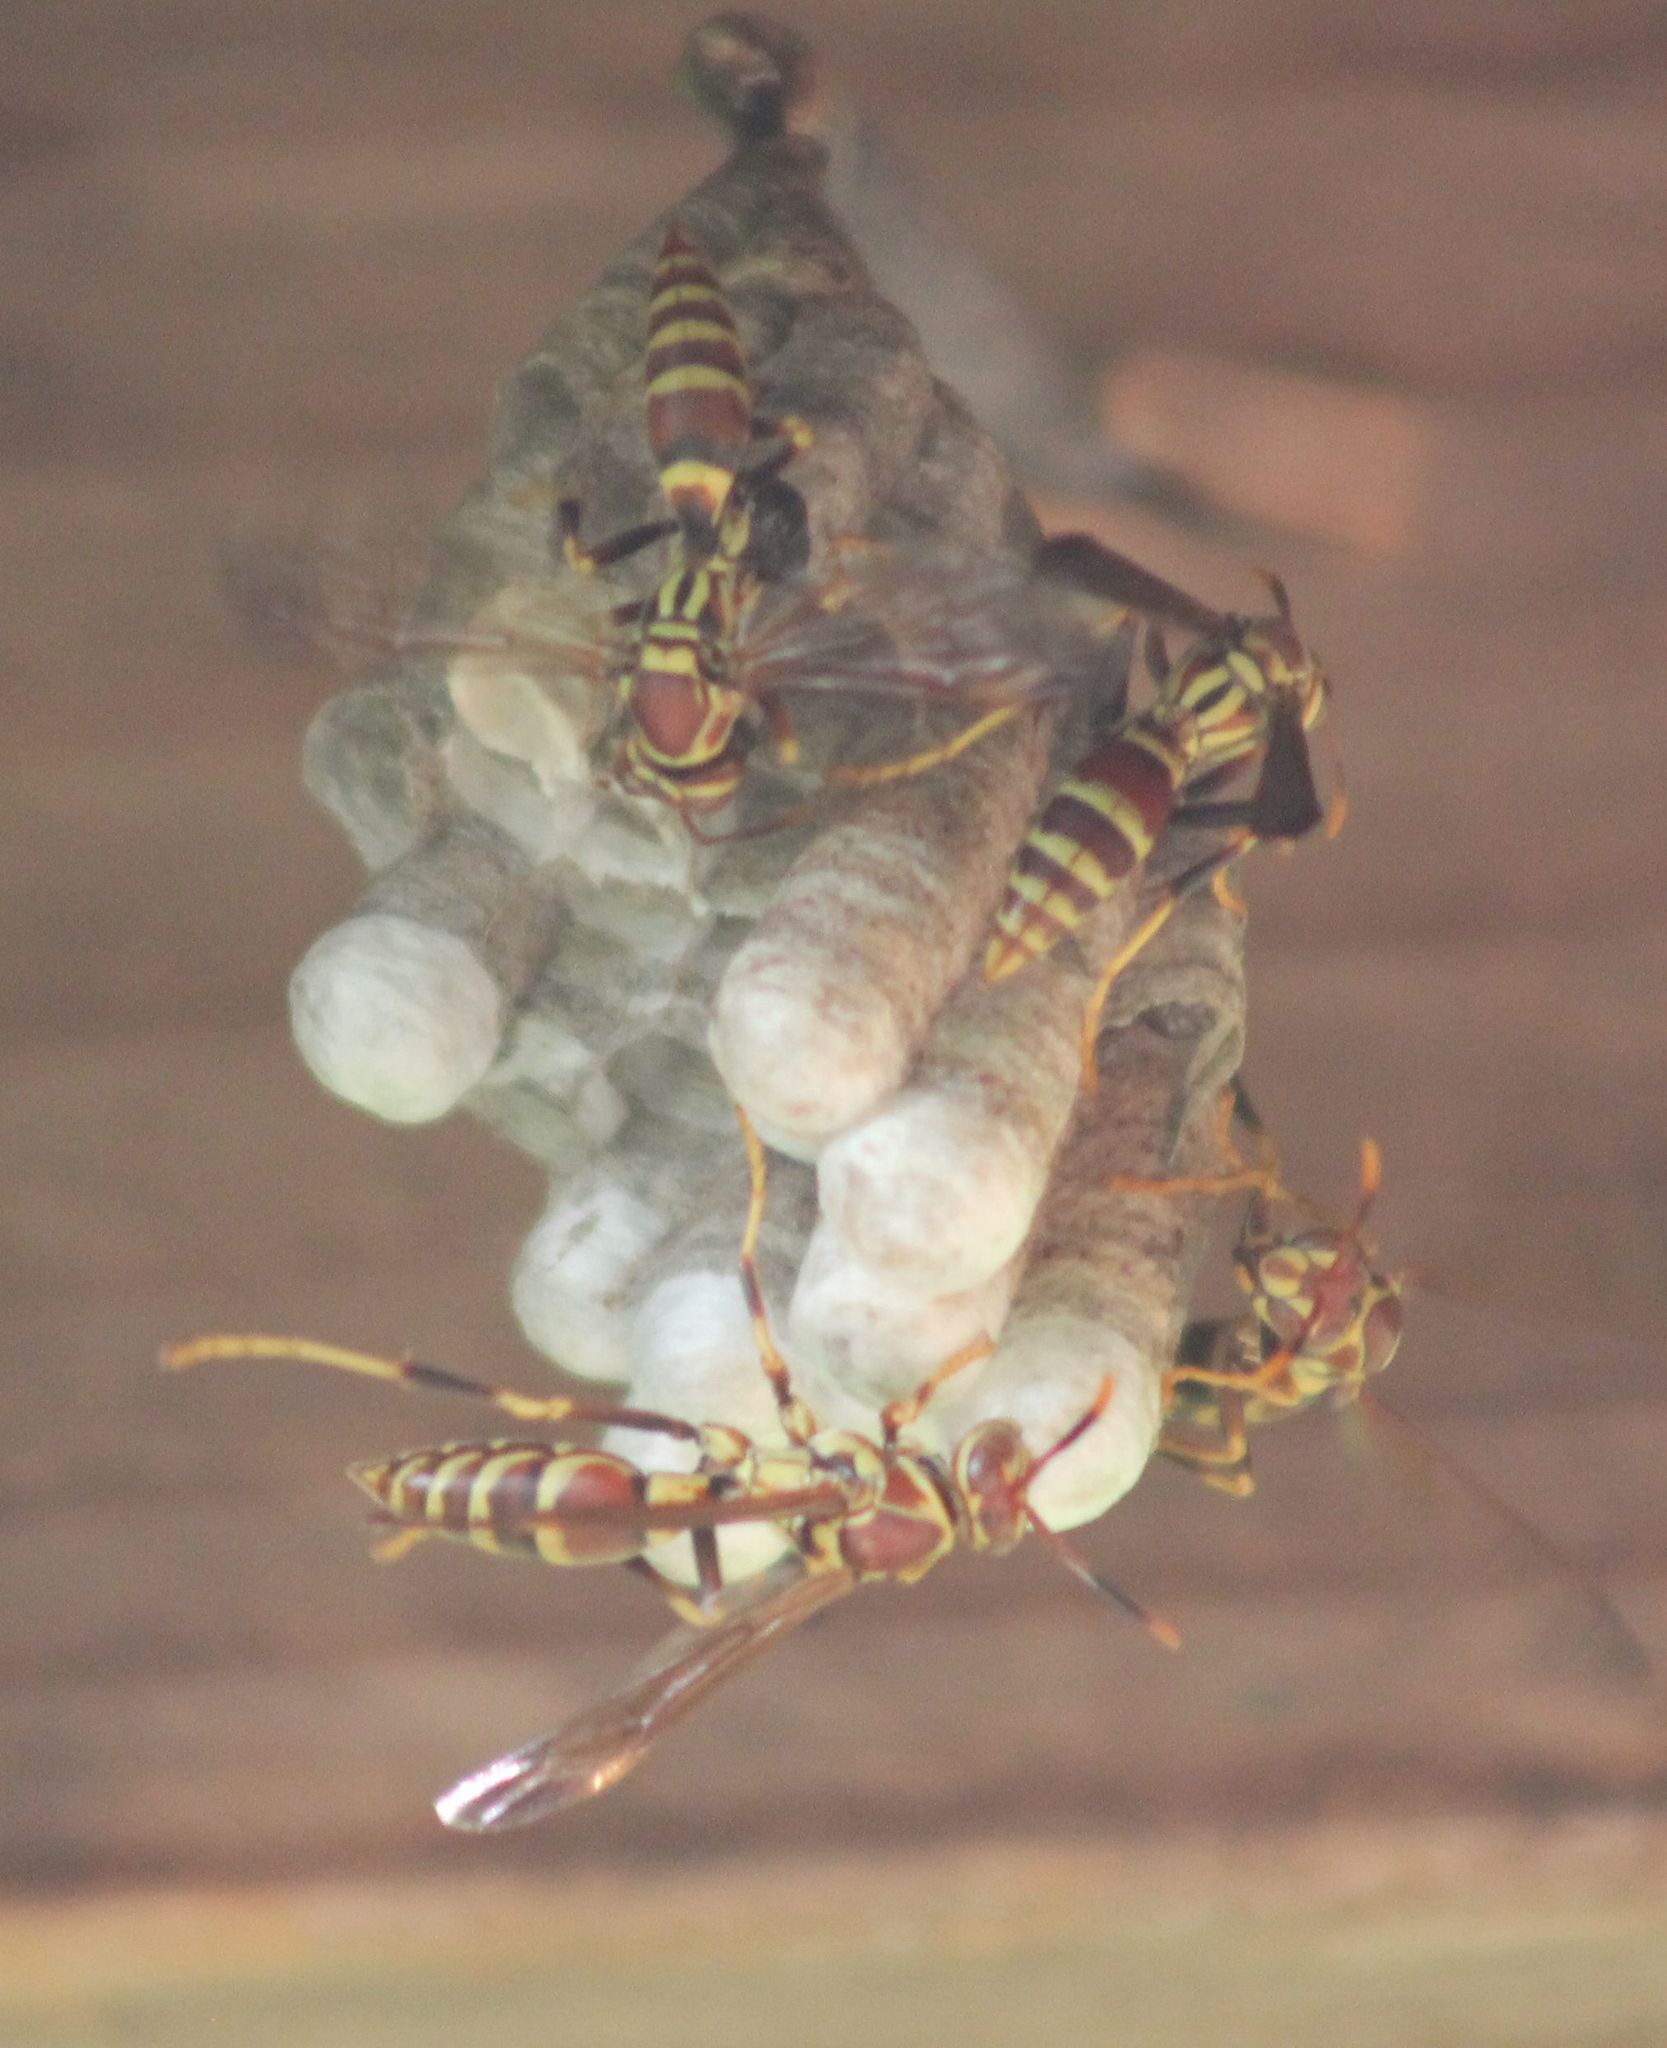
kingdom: Animalia
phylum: Arthropoda
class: Insecta
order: Hymenoptera
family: Eumenidae
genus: Polistes
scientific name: Polistes exclamans
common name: Paper wasp
